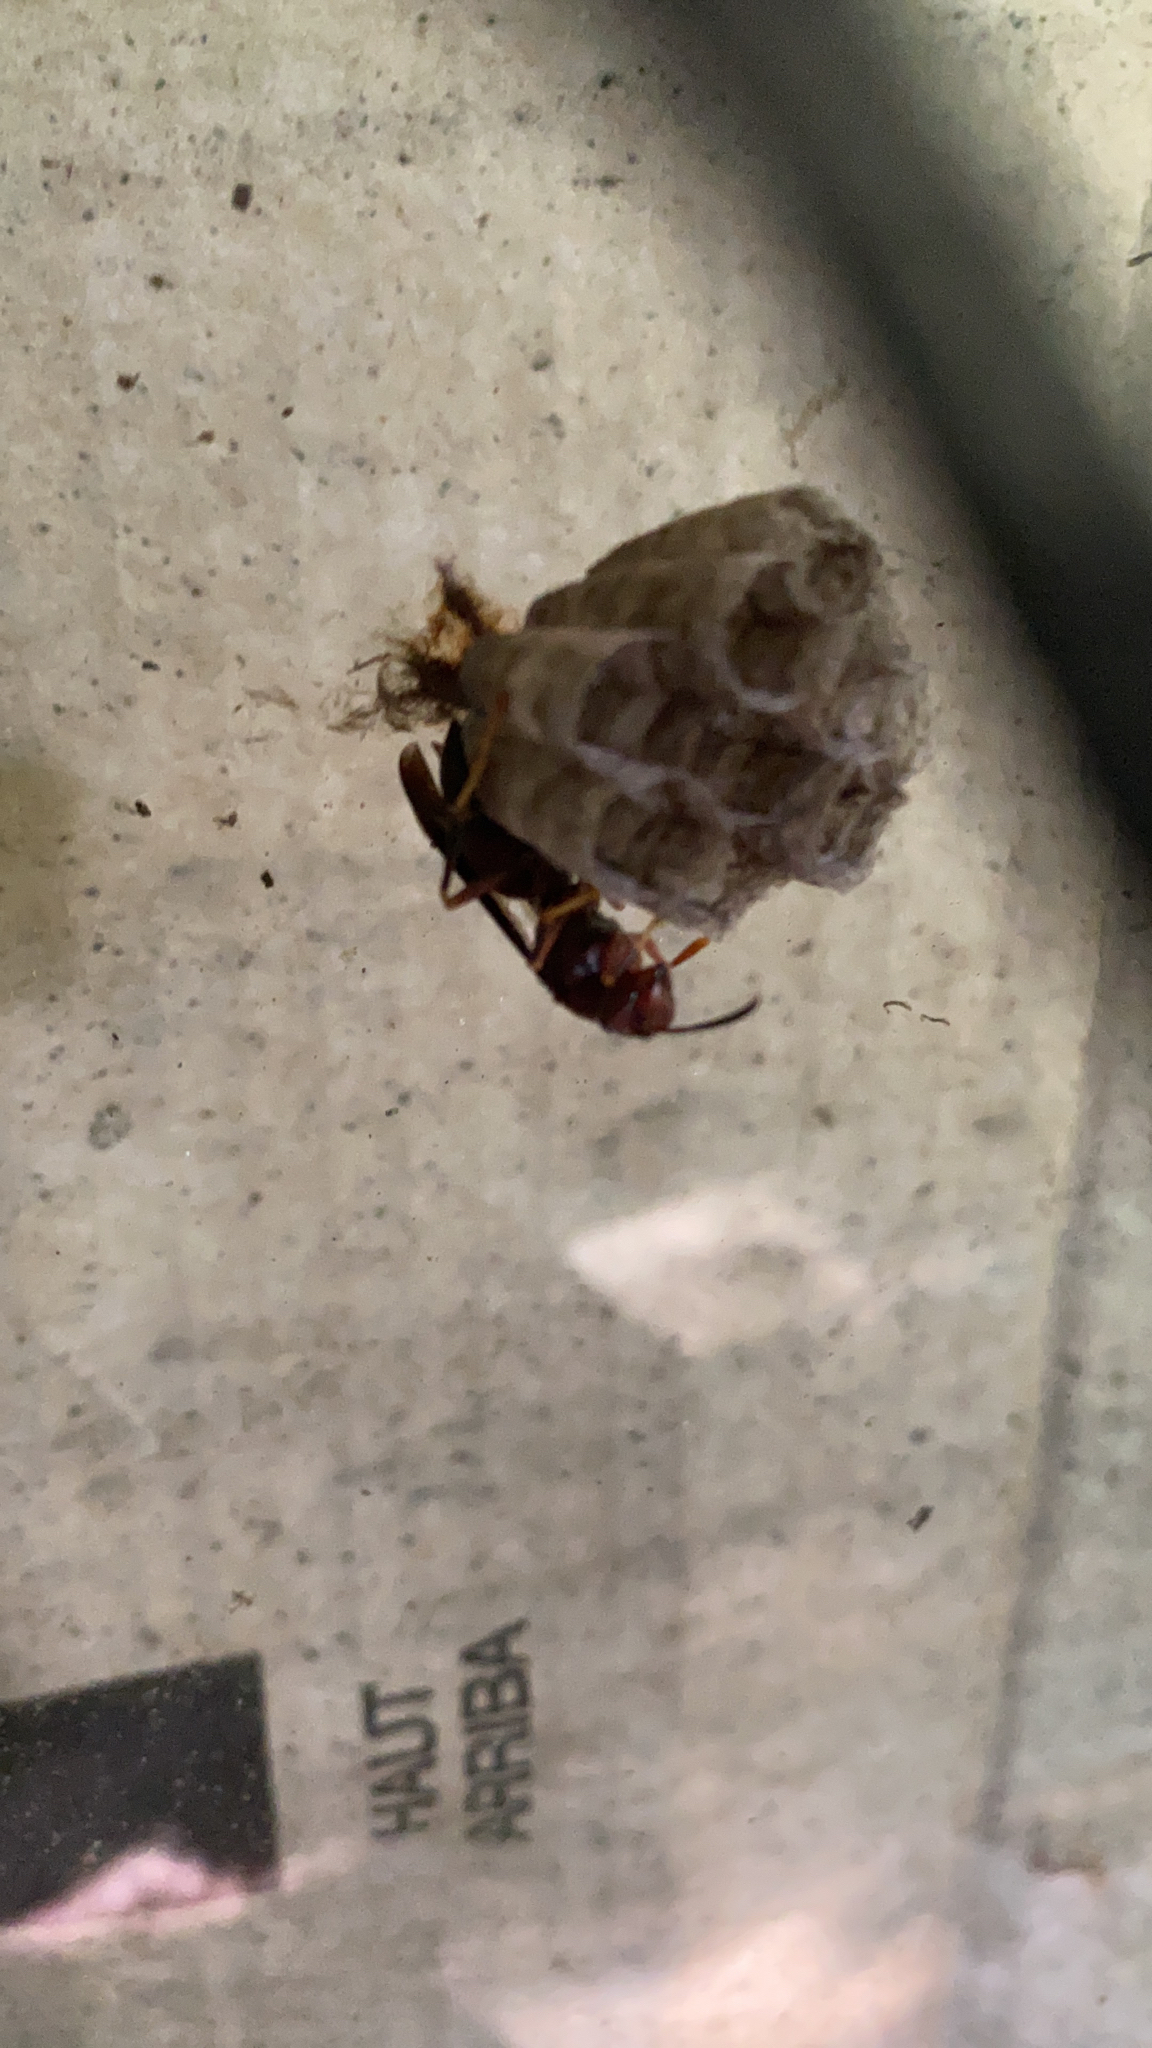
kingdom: Animalia
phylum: Arthropoda
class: Insecta
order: Hymenoptera
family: Eumenidae
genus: Polistes
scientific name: Polistes metricus
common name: Metric paper wasp
